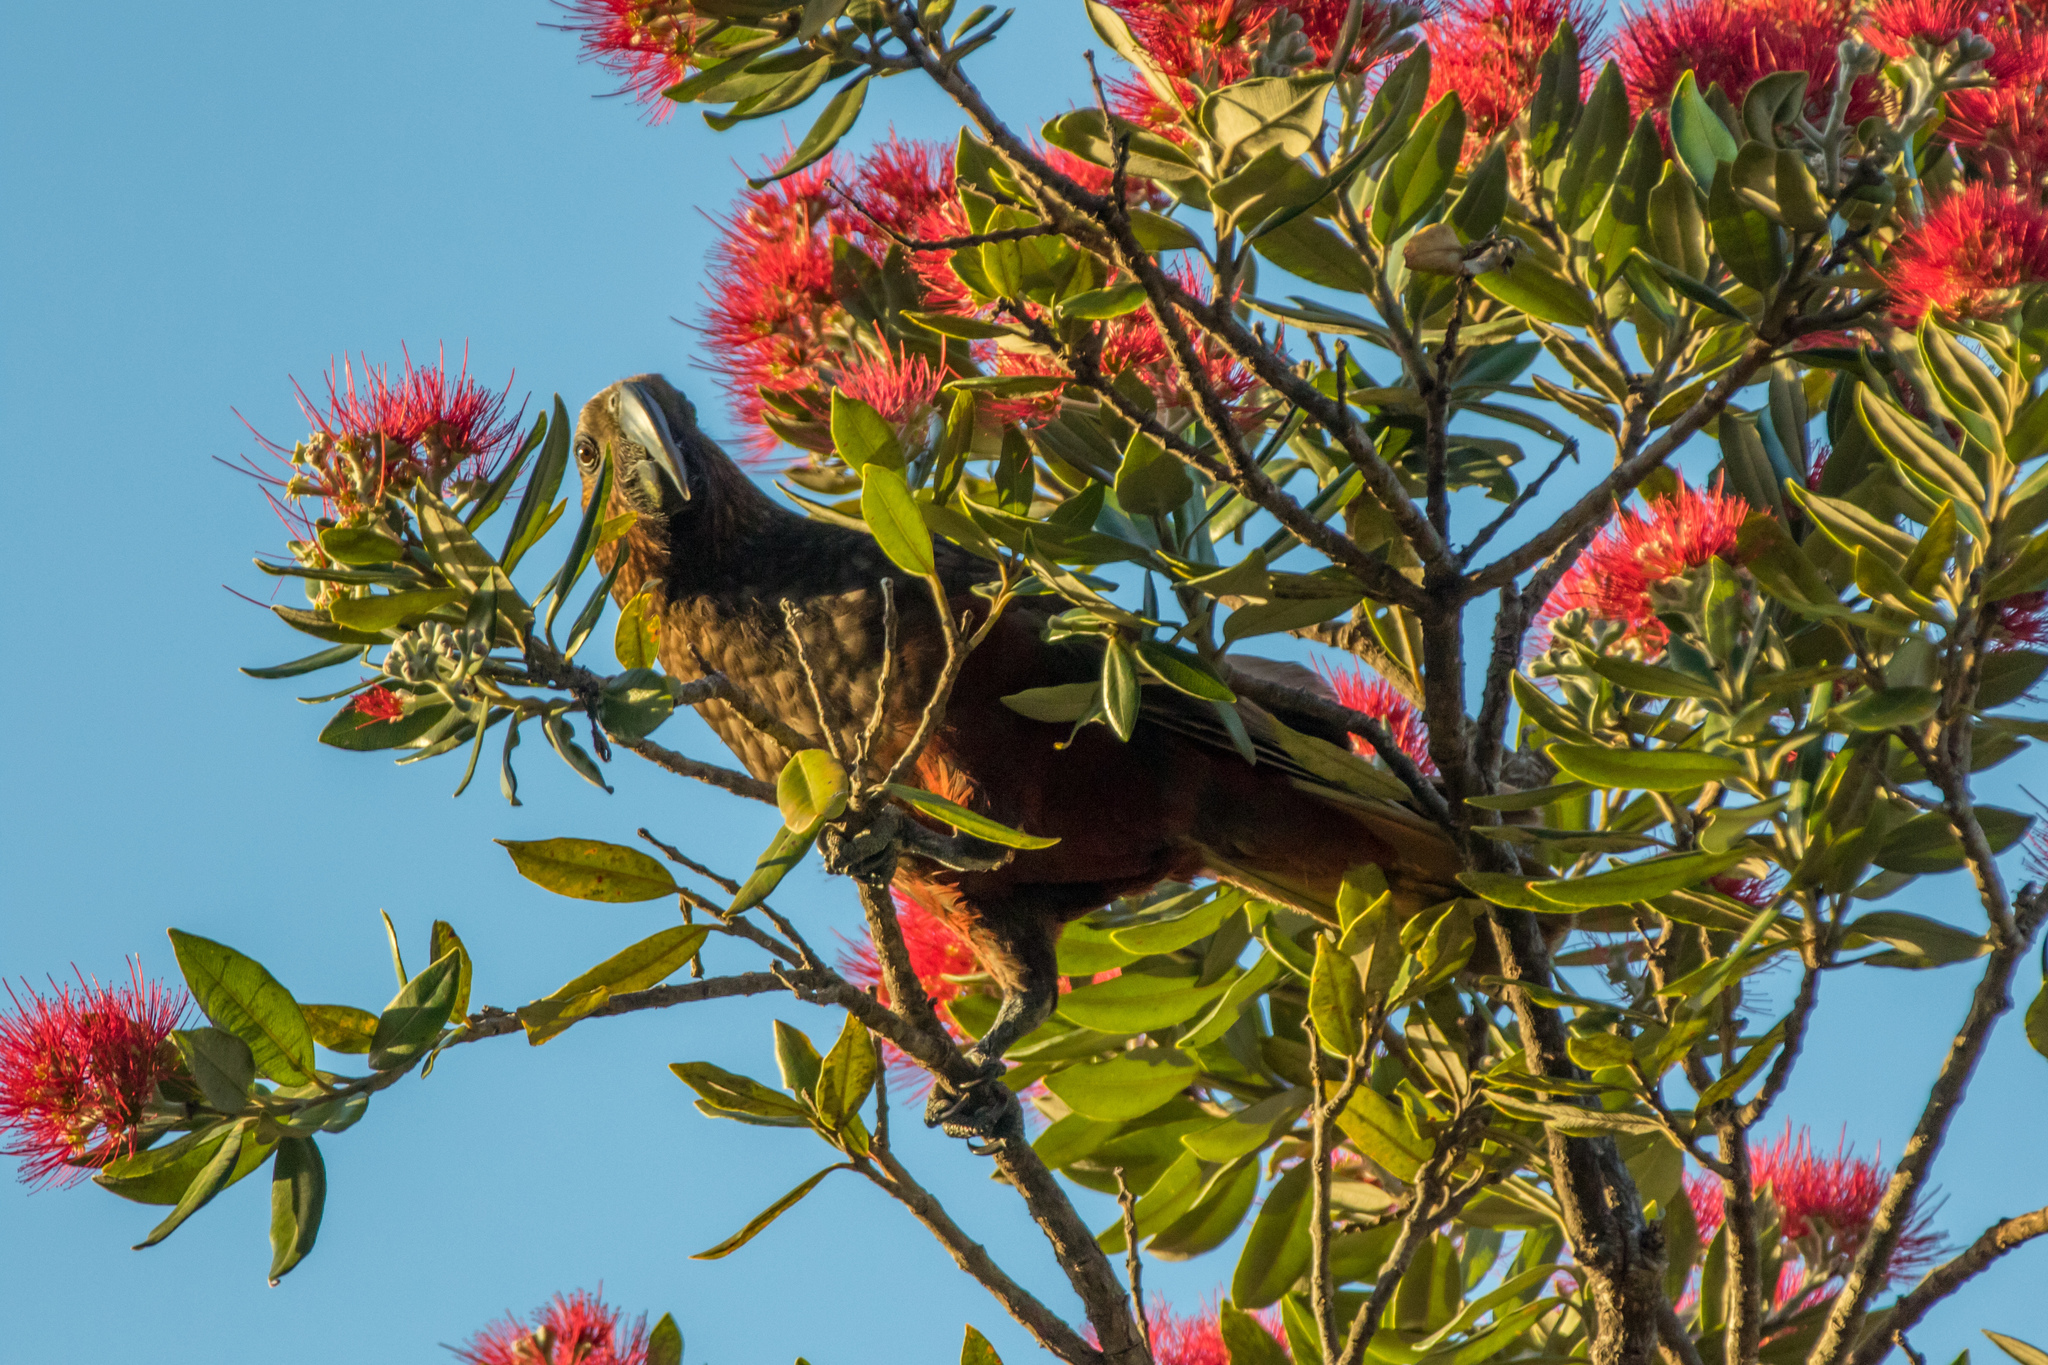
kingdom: Animalia
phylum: Chordata
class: Aves
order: Psittaciformes
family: Psittacidae
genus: Nestor
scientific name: Nestor meridionalis
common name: New zealand kaka
